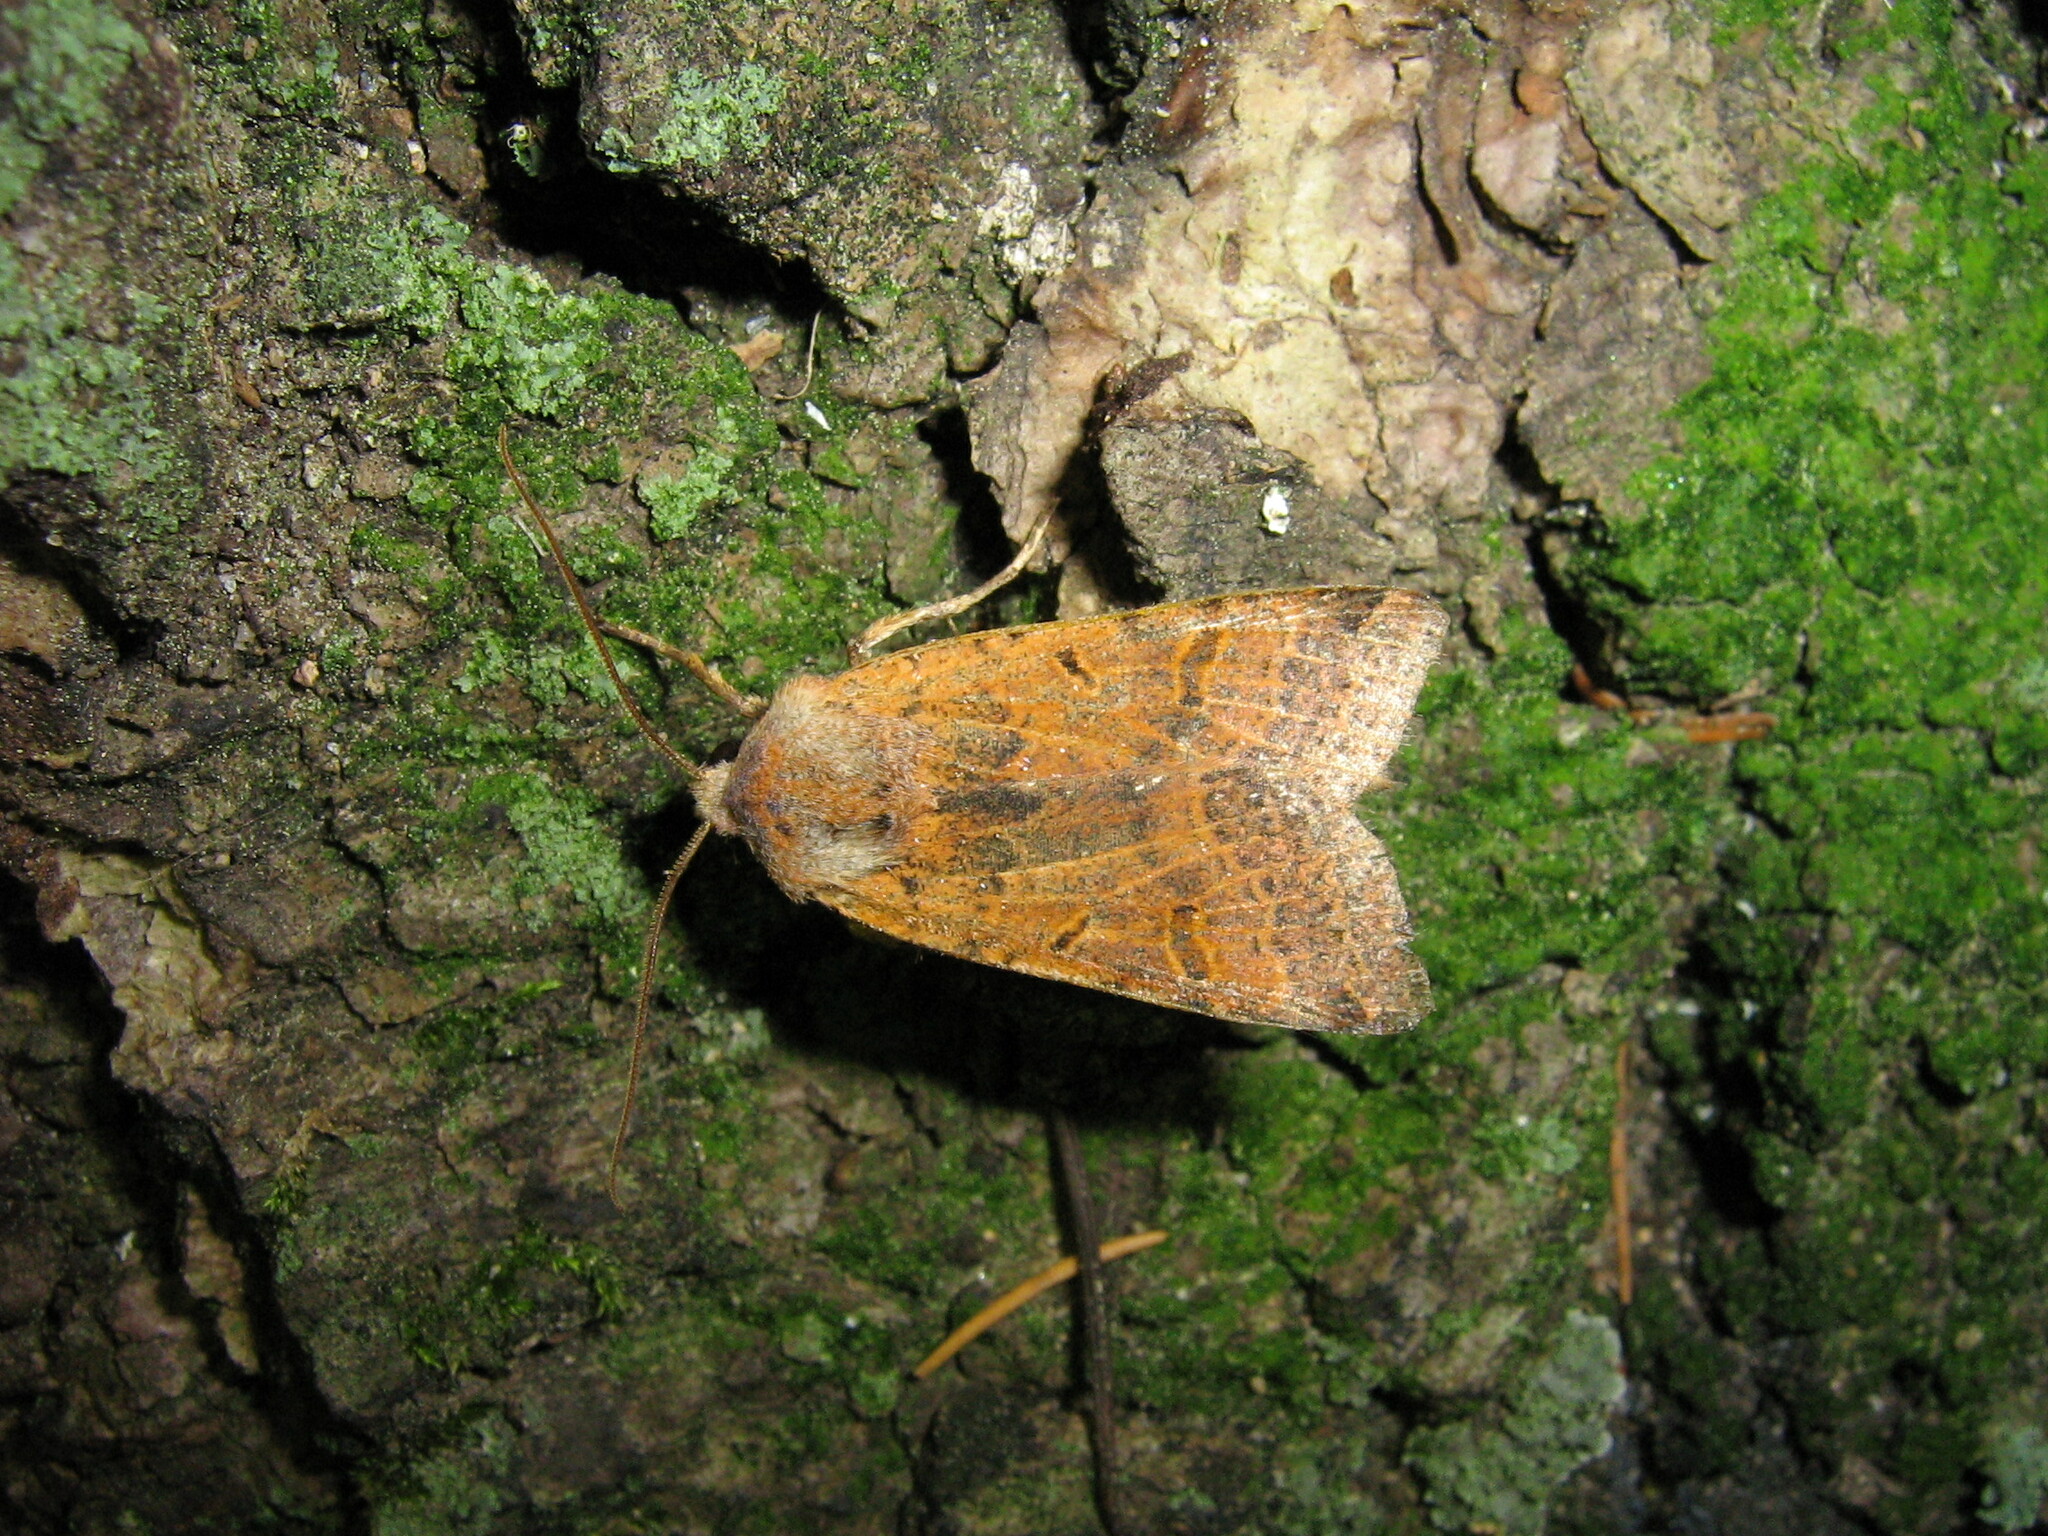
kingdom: Animalia
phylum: Arthropoda
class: Insecta
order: Lepidoptera
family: Noctuidae
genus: Agrochola
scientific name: Agrochola lychnidis
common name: Beaded chestnut
